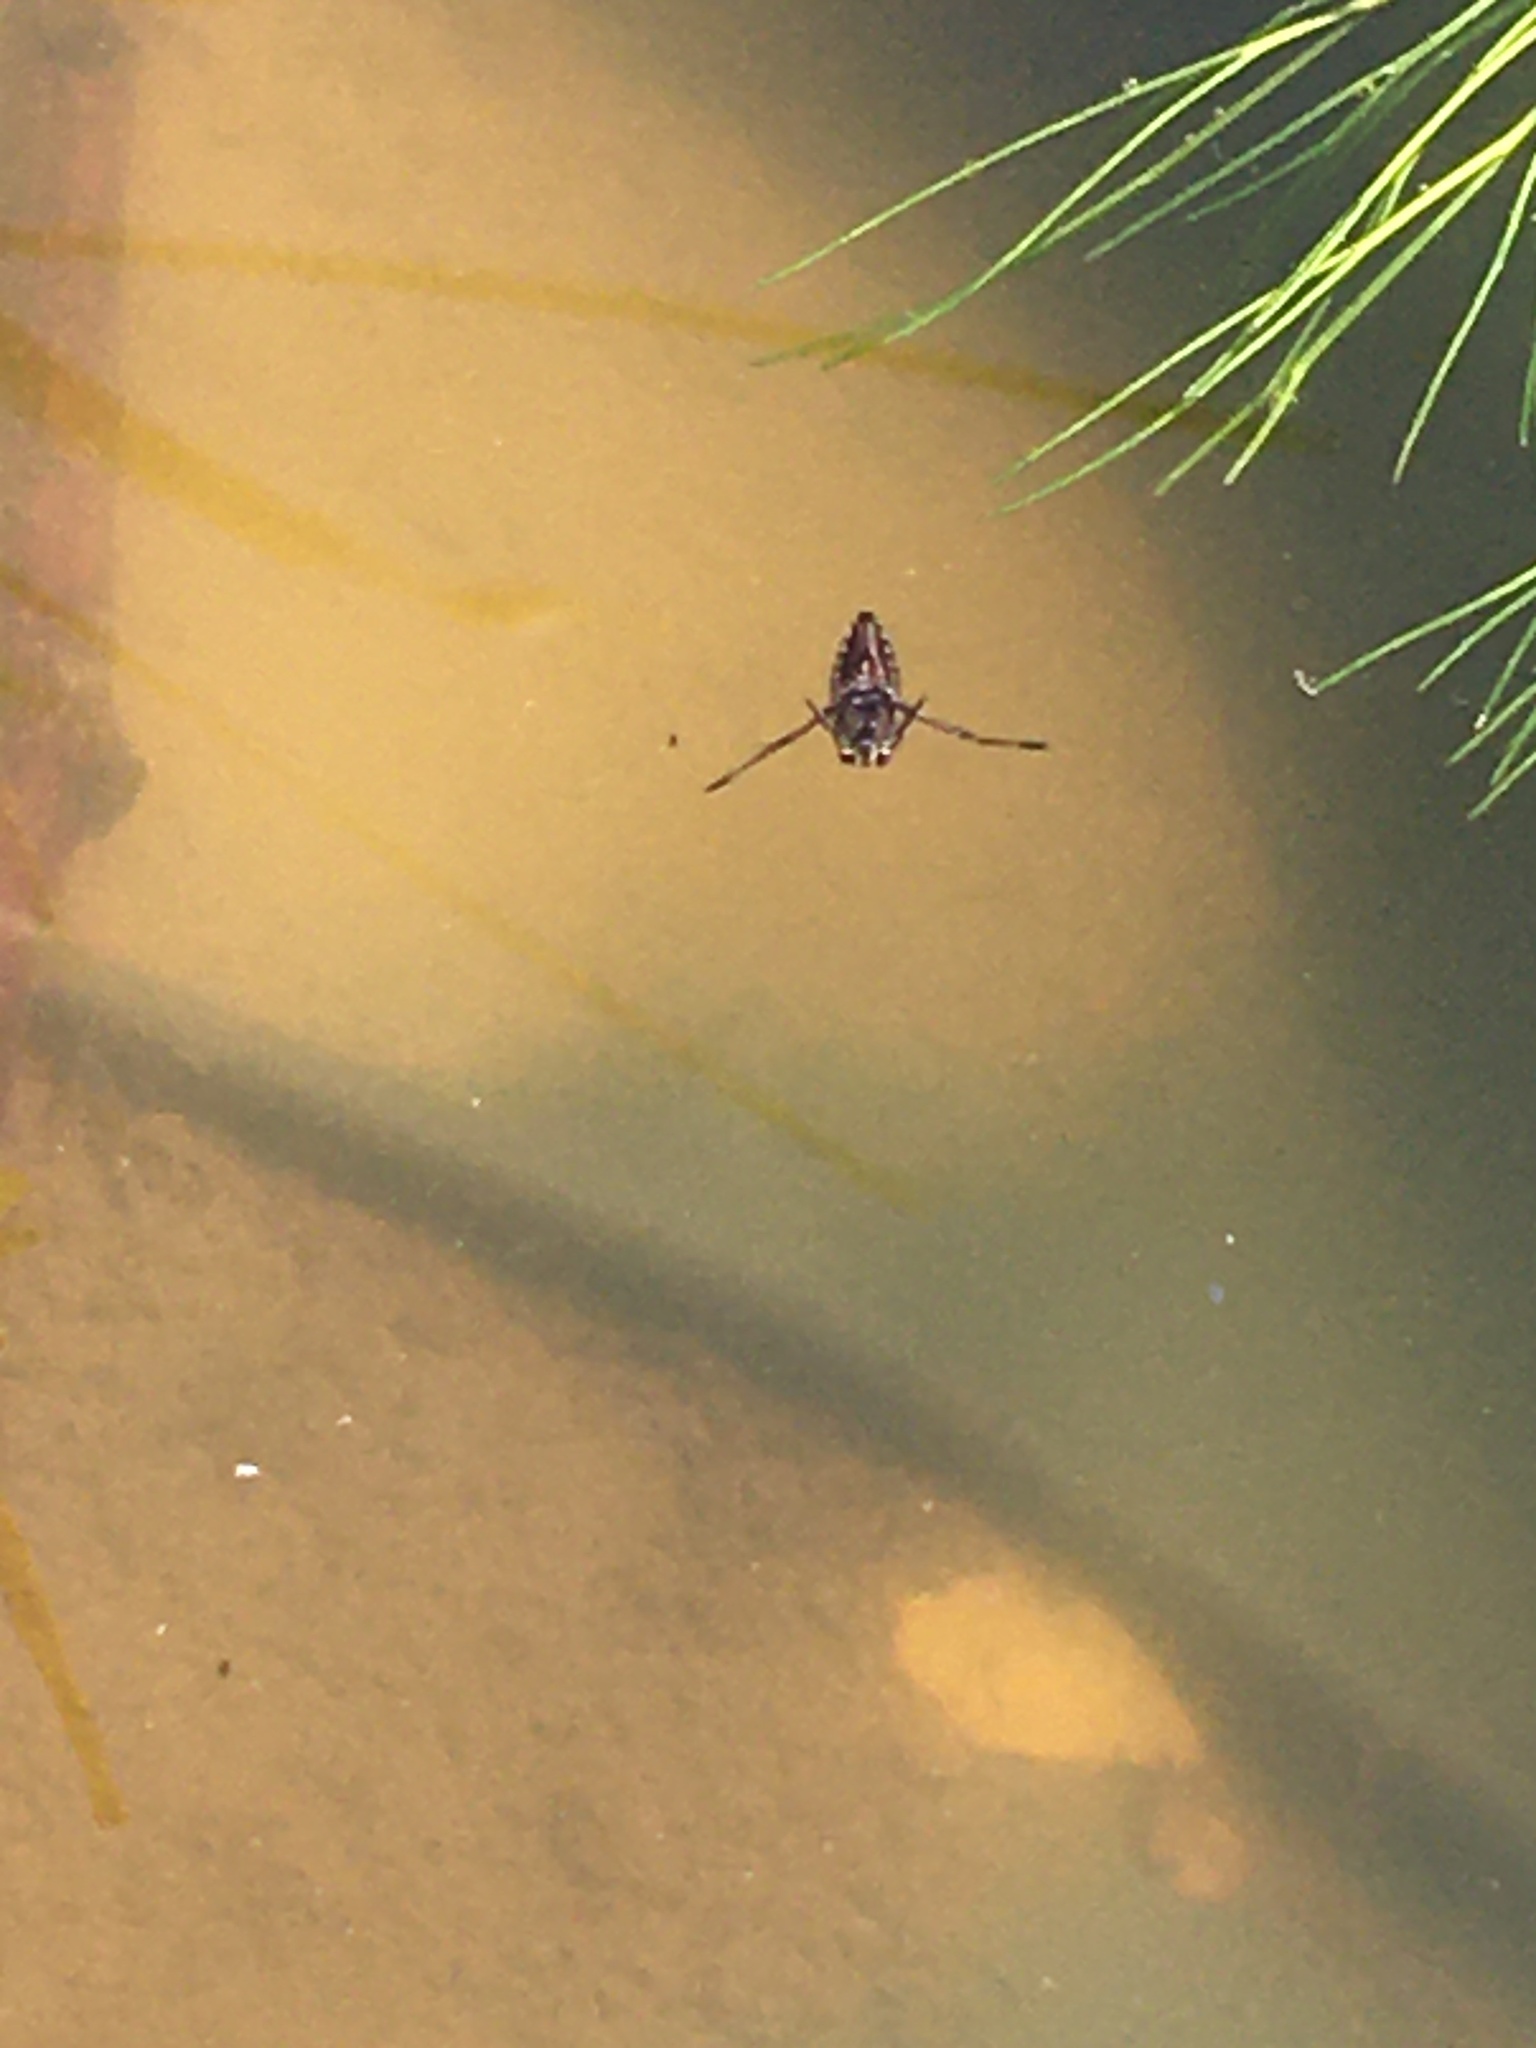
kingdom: Animalia
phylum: Arthropoda
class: Insecta
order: Hemiptera
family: Notonectidae
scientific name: Notonectidae
